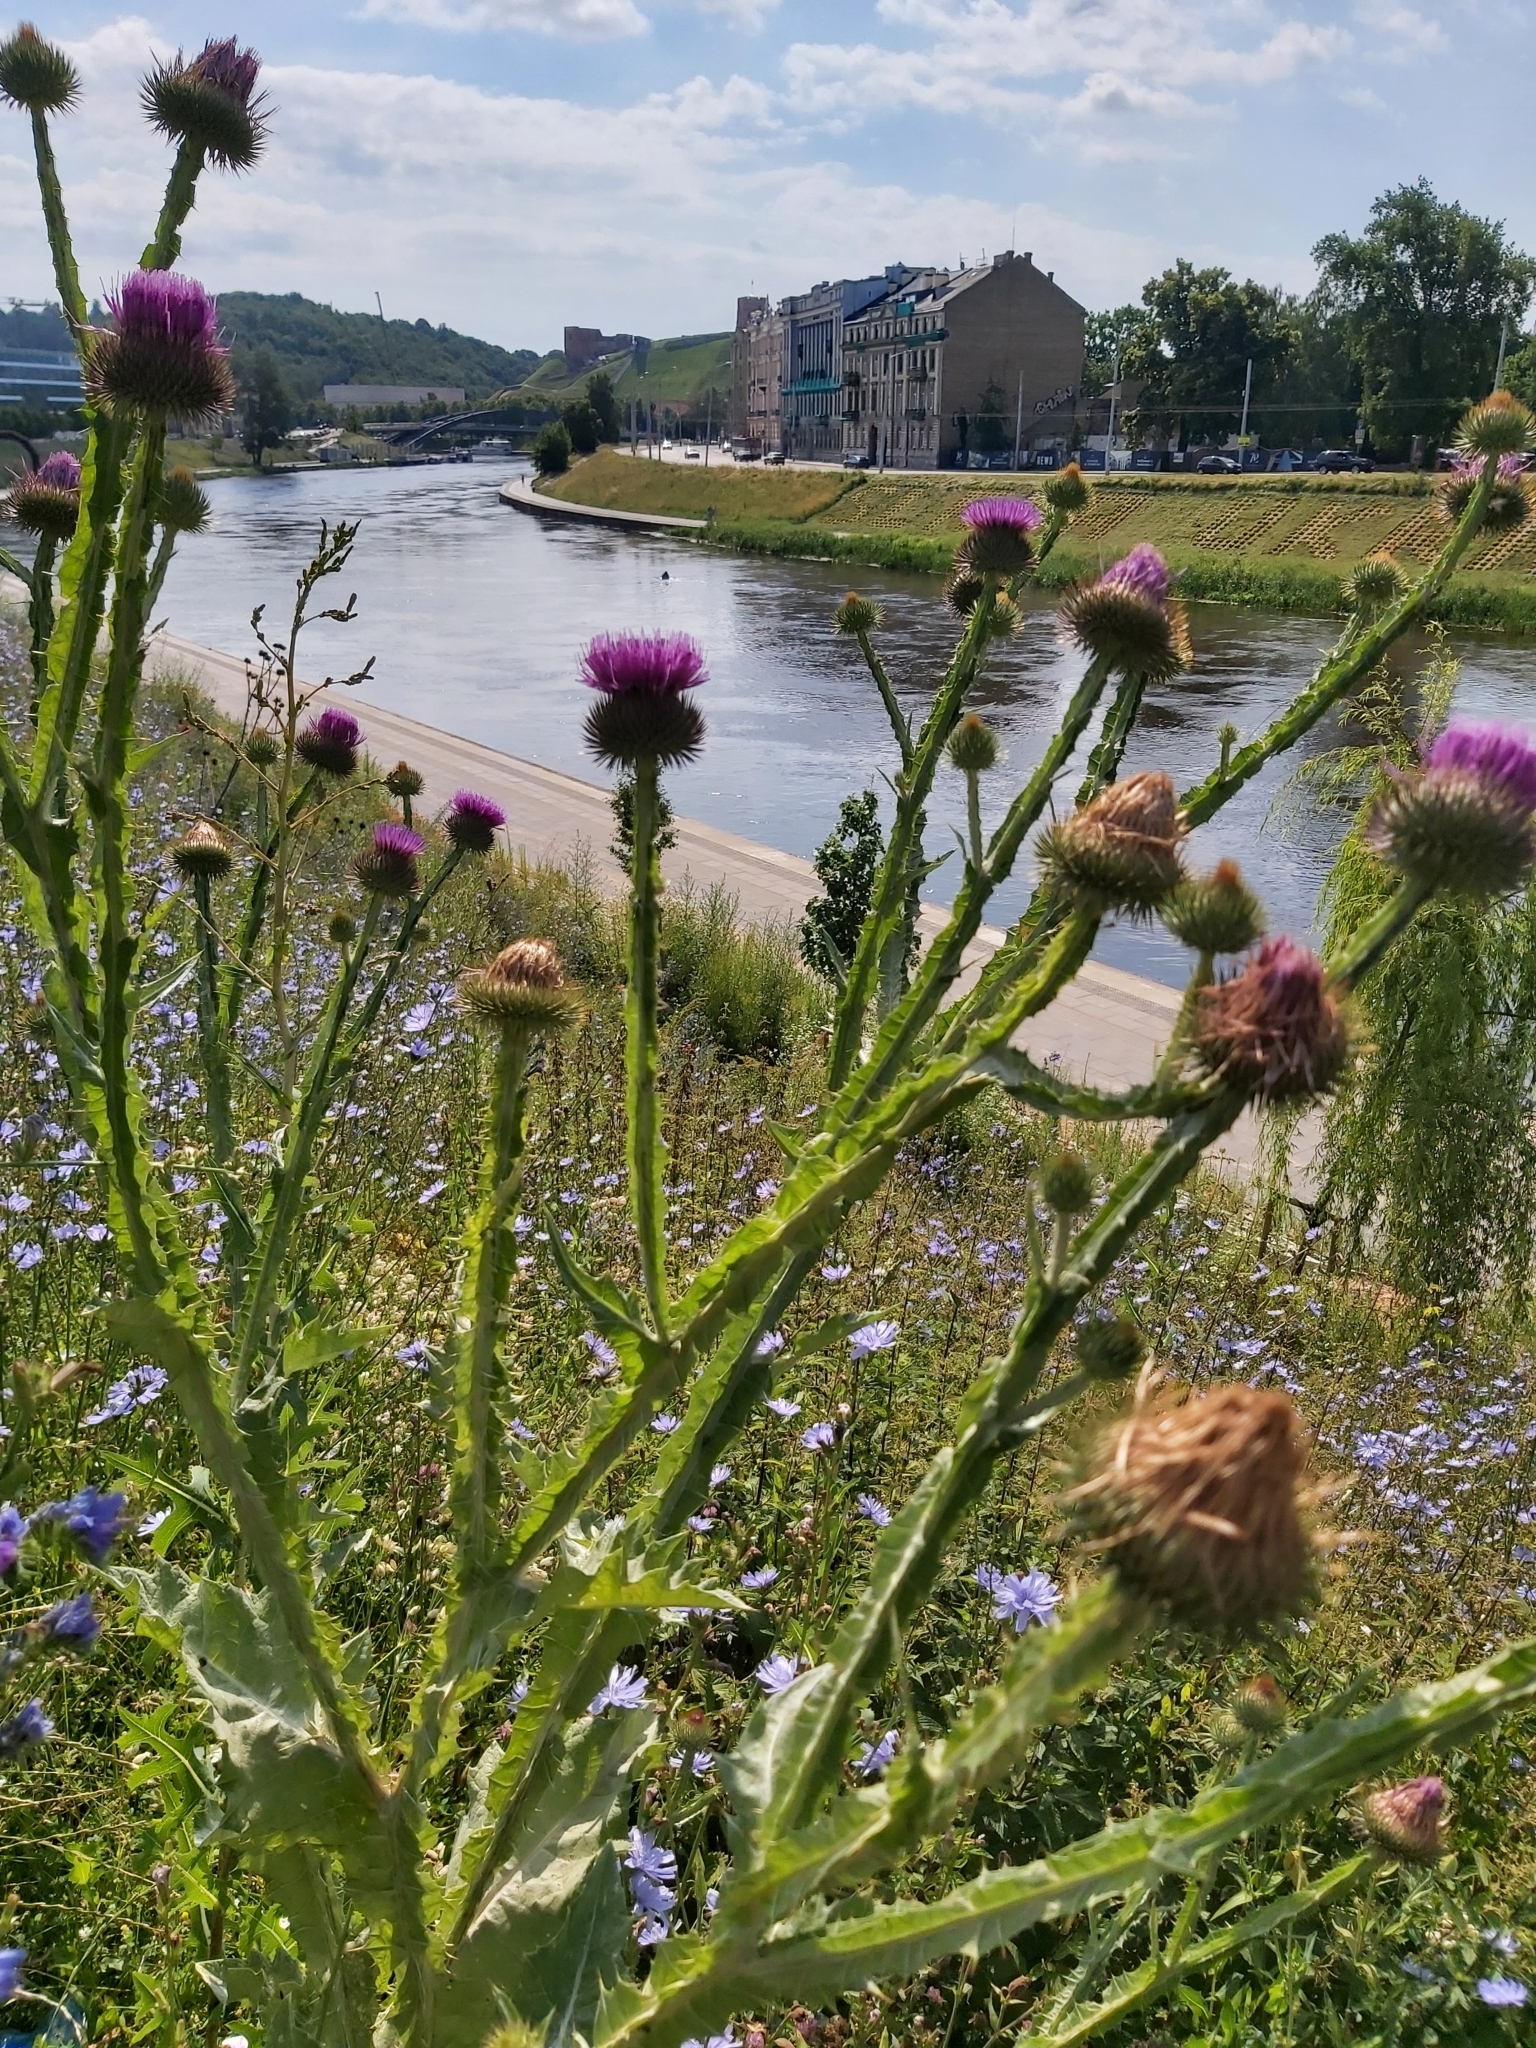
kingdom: Plantae
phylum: Tracheophyta
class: Magnoliopsida
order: Asterales
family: Asteraceae
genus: Onopordum
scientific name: Onopordum acanthium
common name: Scotch thistle
